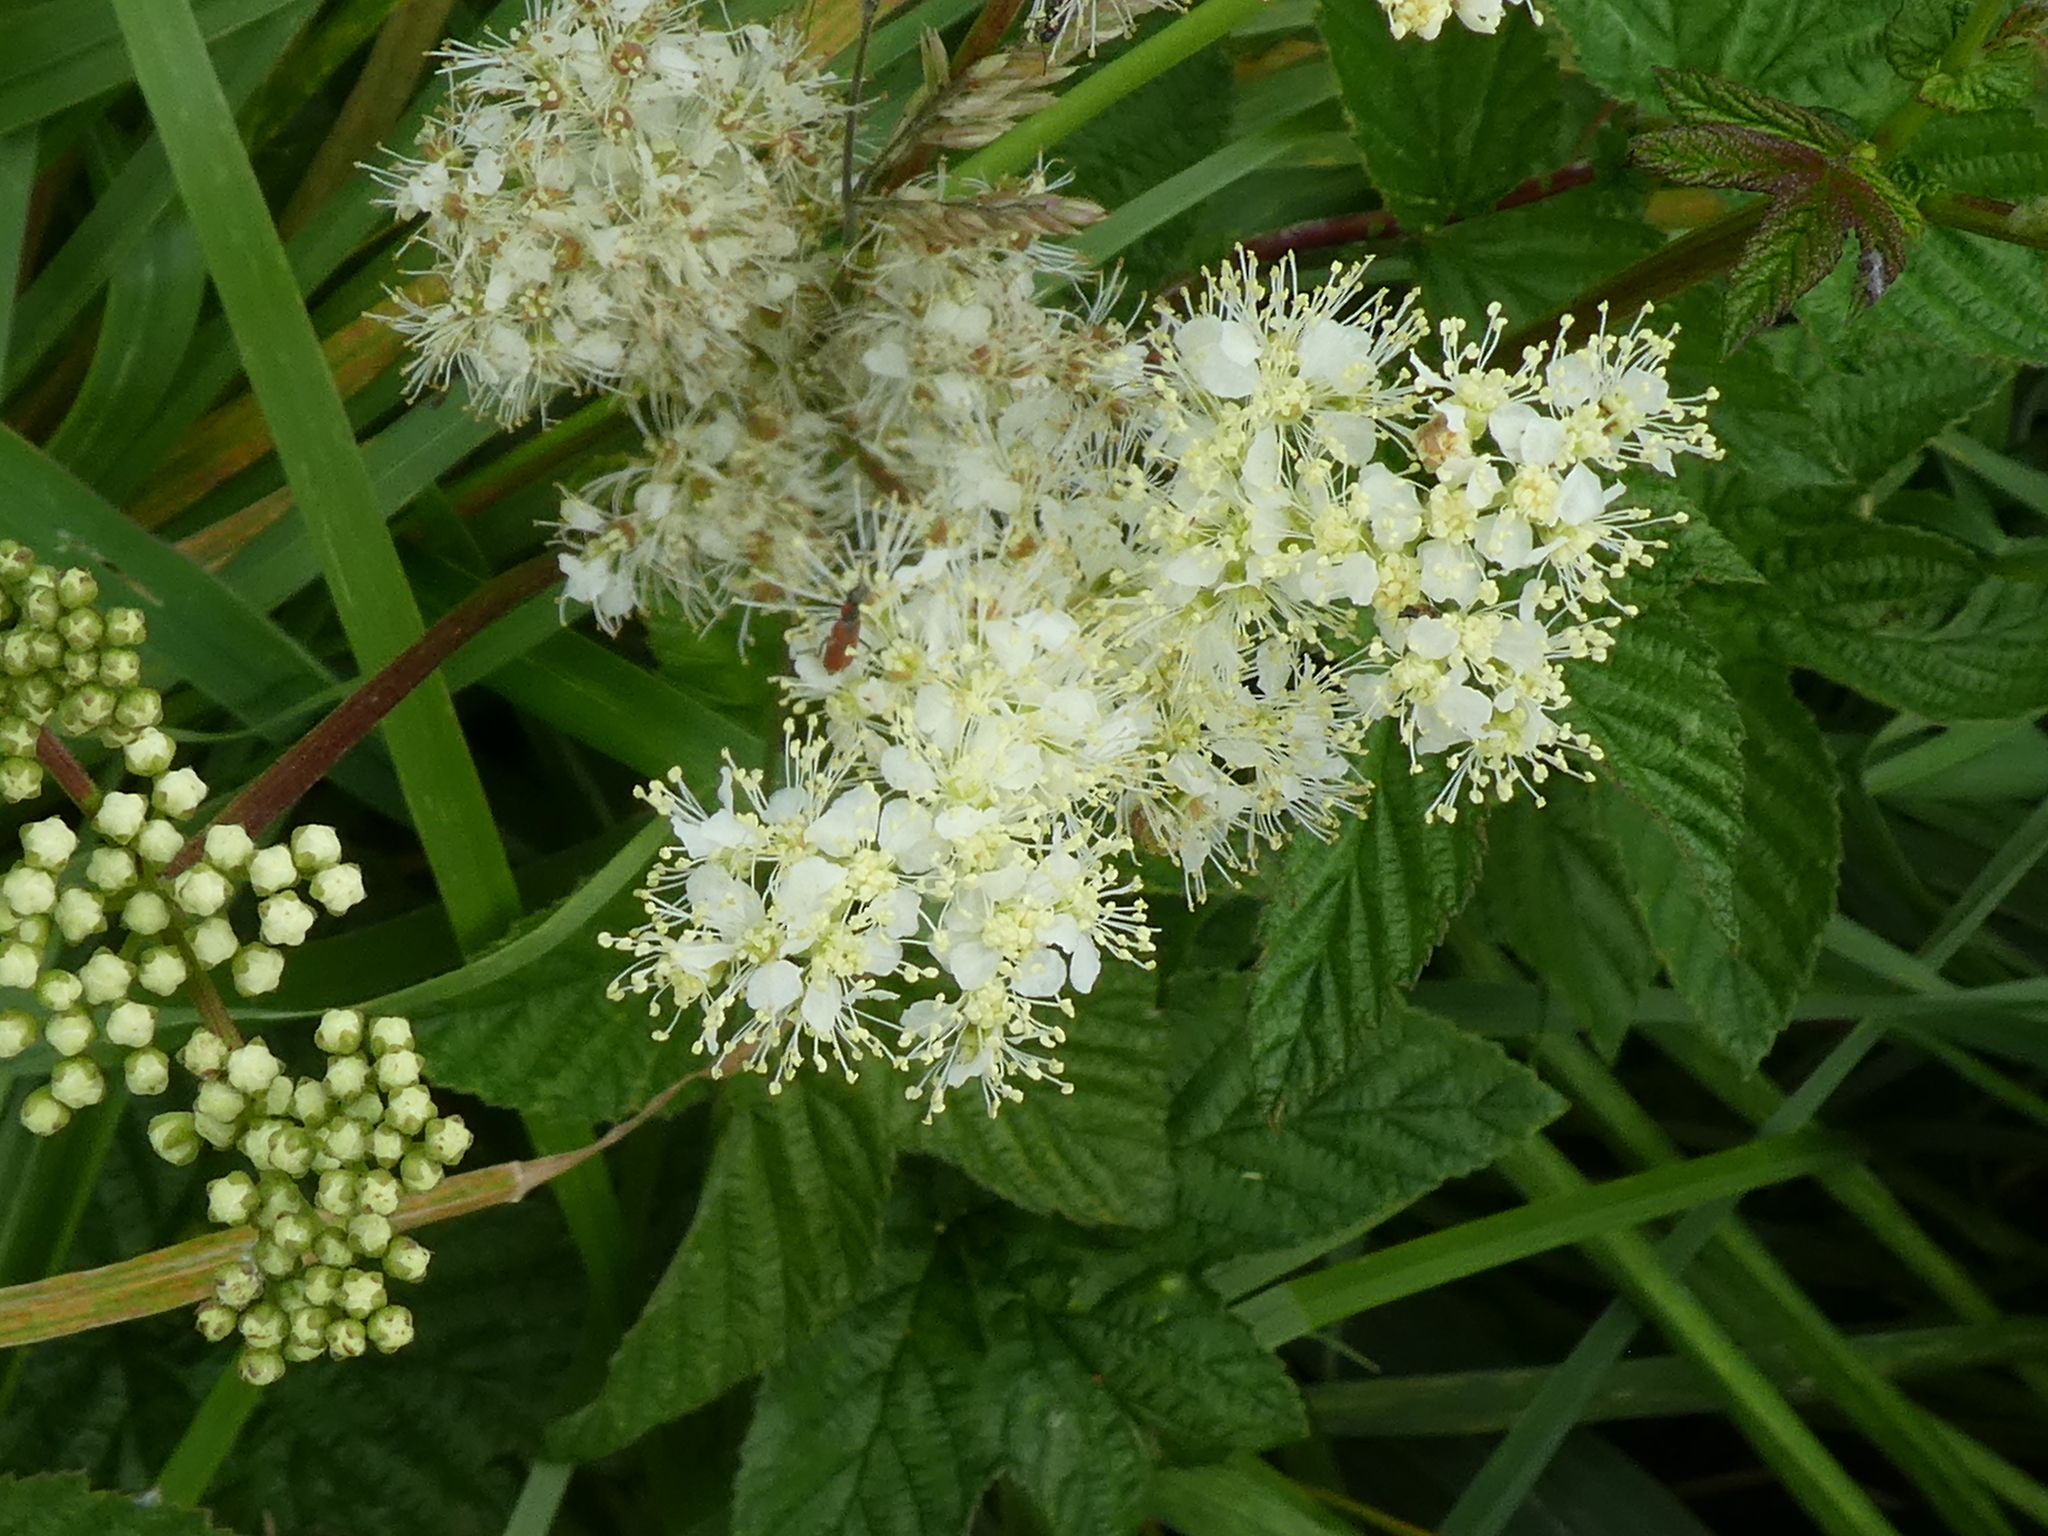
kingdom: Plantae
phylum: Tracheophyta
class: Magnoliopsida
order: Rosales
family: Rosaceae
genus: Filipendula
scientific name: Filipendula ulmaria
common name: Meadowsweet
